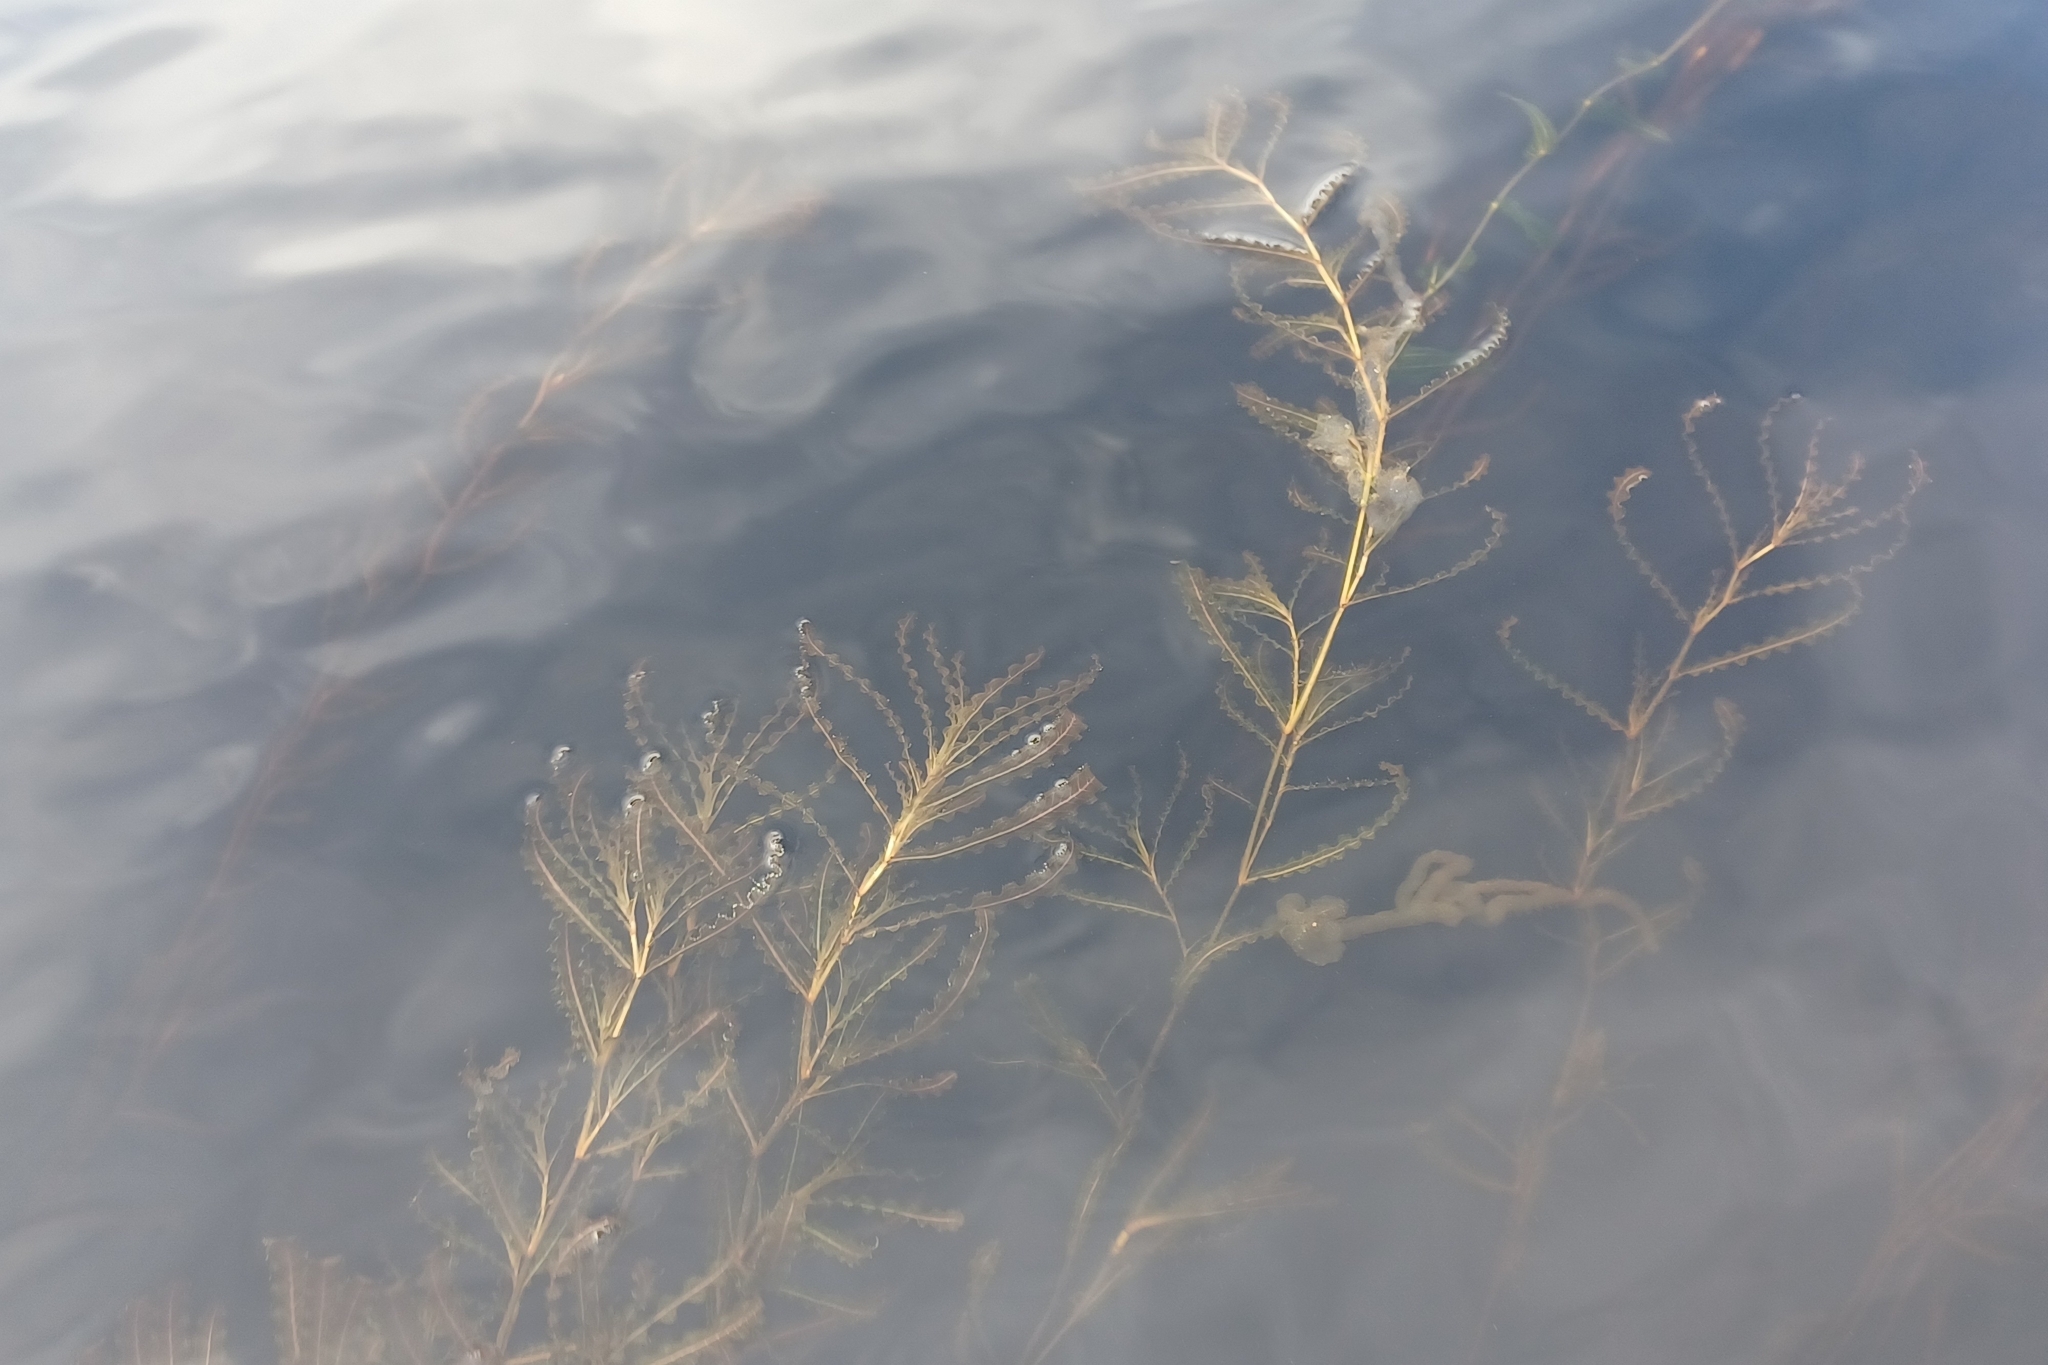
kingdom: Plantae
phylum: Tracheophyta
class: Liliopsida
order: Alismatales
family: Potamogetonaceae
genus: Potamogeton
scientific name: Potamogeton crispus
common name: Curled pondweed
